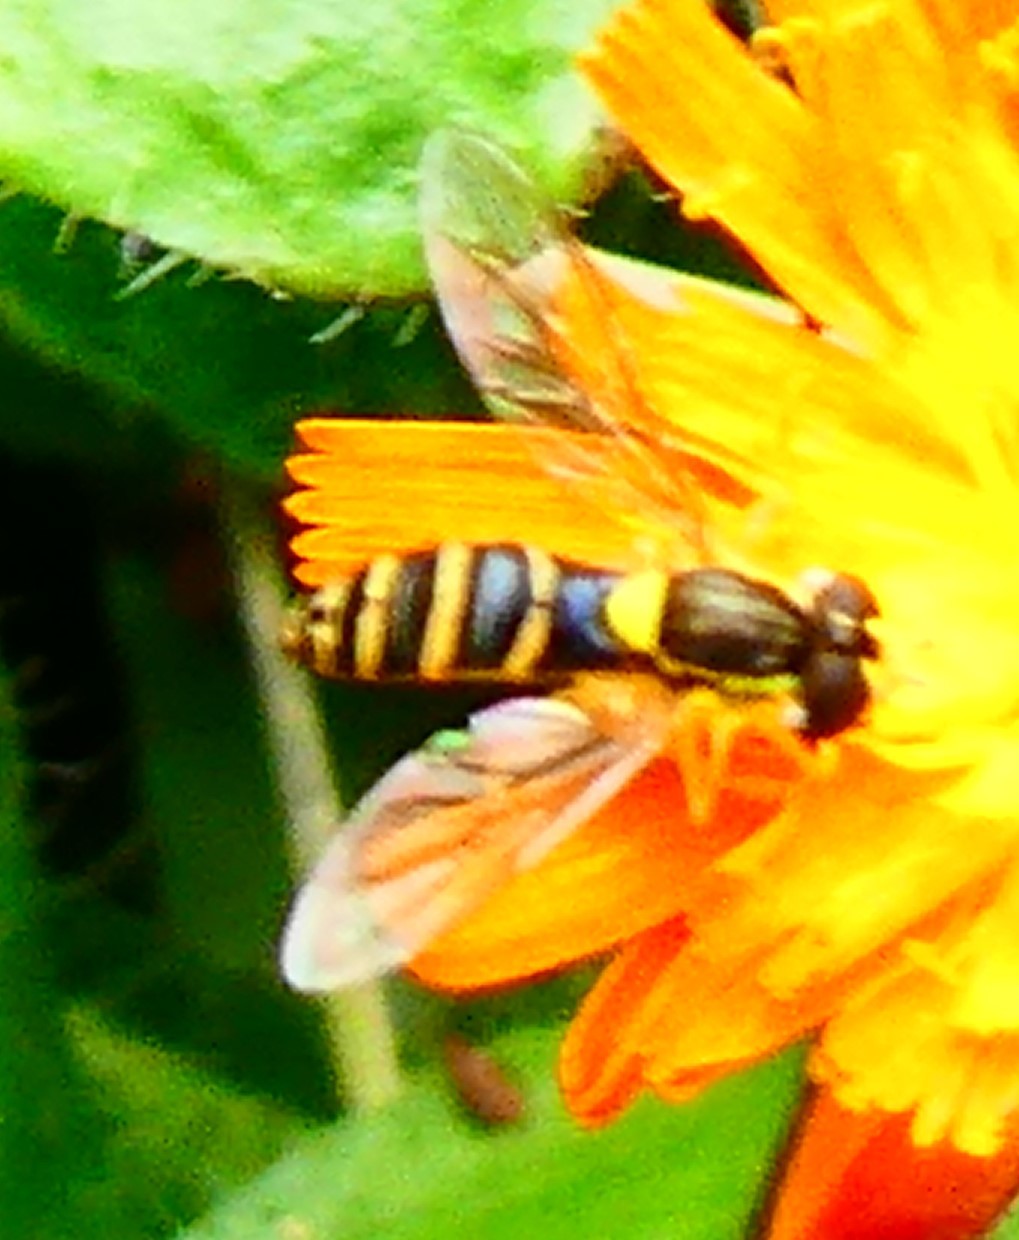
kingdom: Animalia
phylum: Arthropoda
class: Insecta
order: Diptera
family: Syrphidae
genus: Sphaerophoria
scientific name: Sphaerophoria
